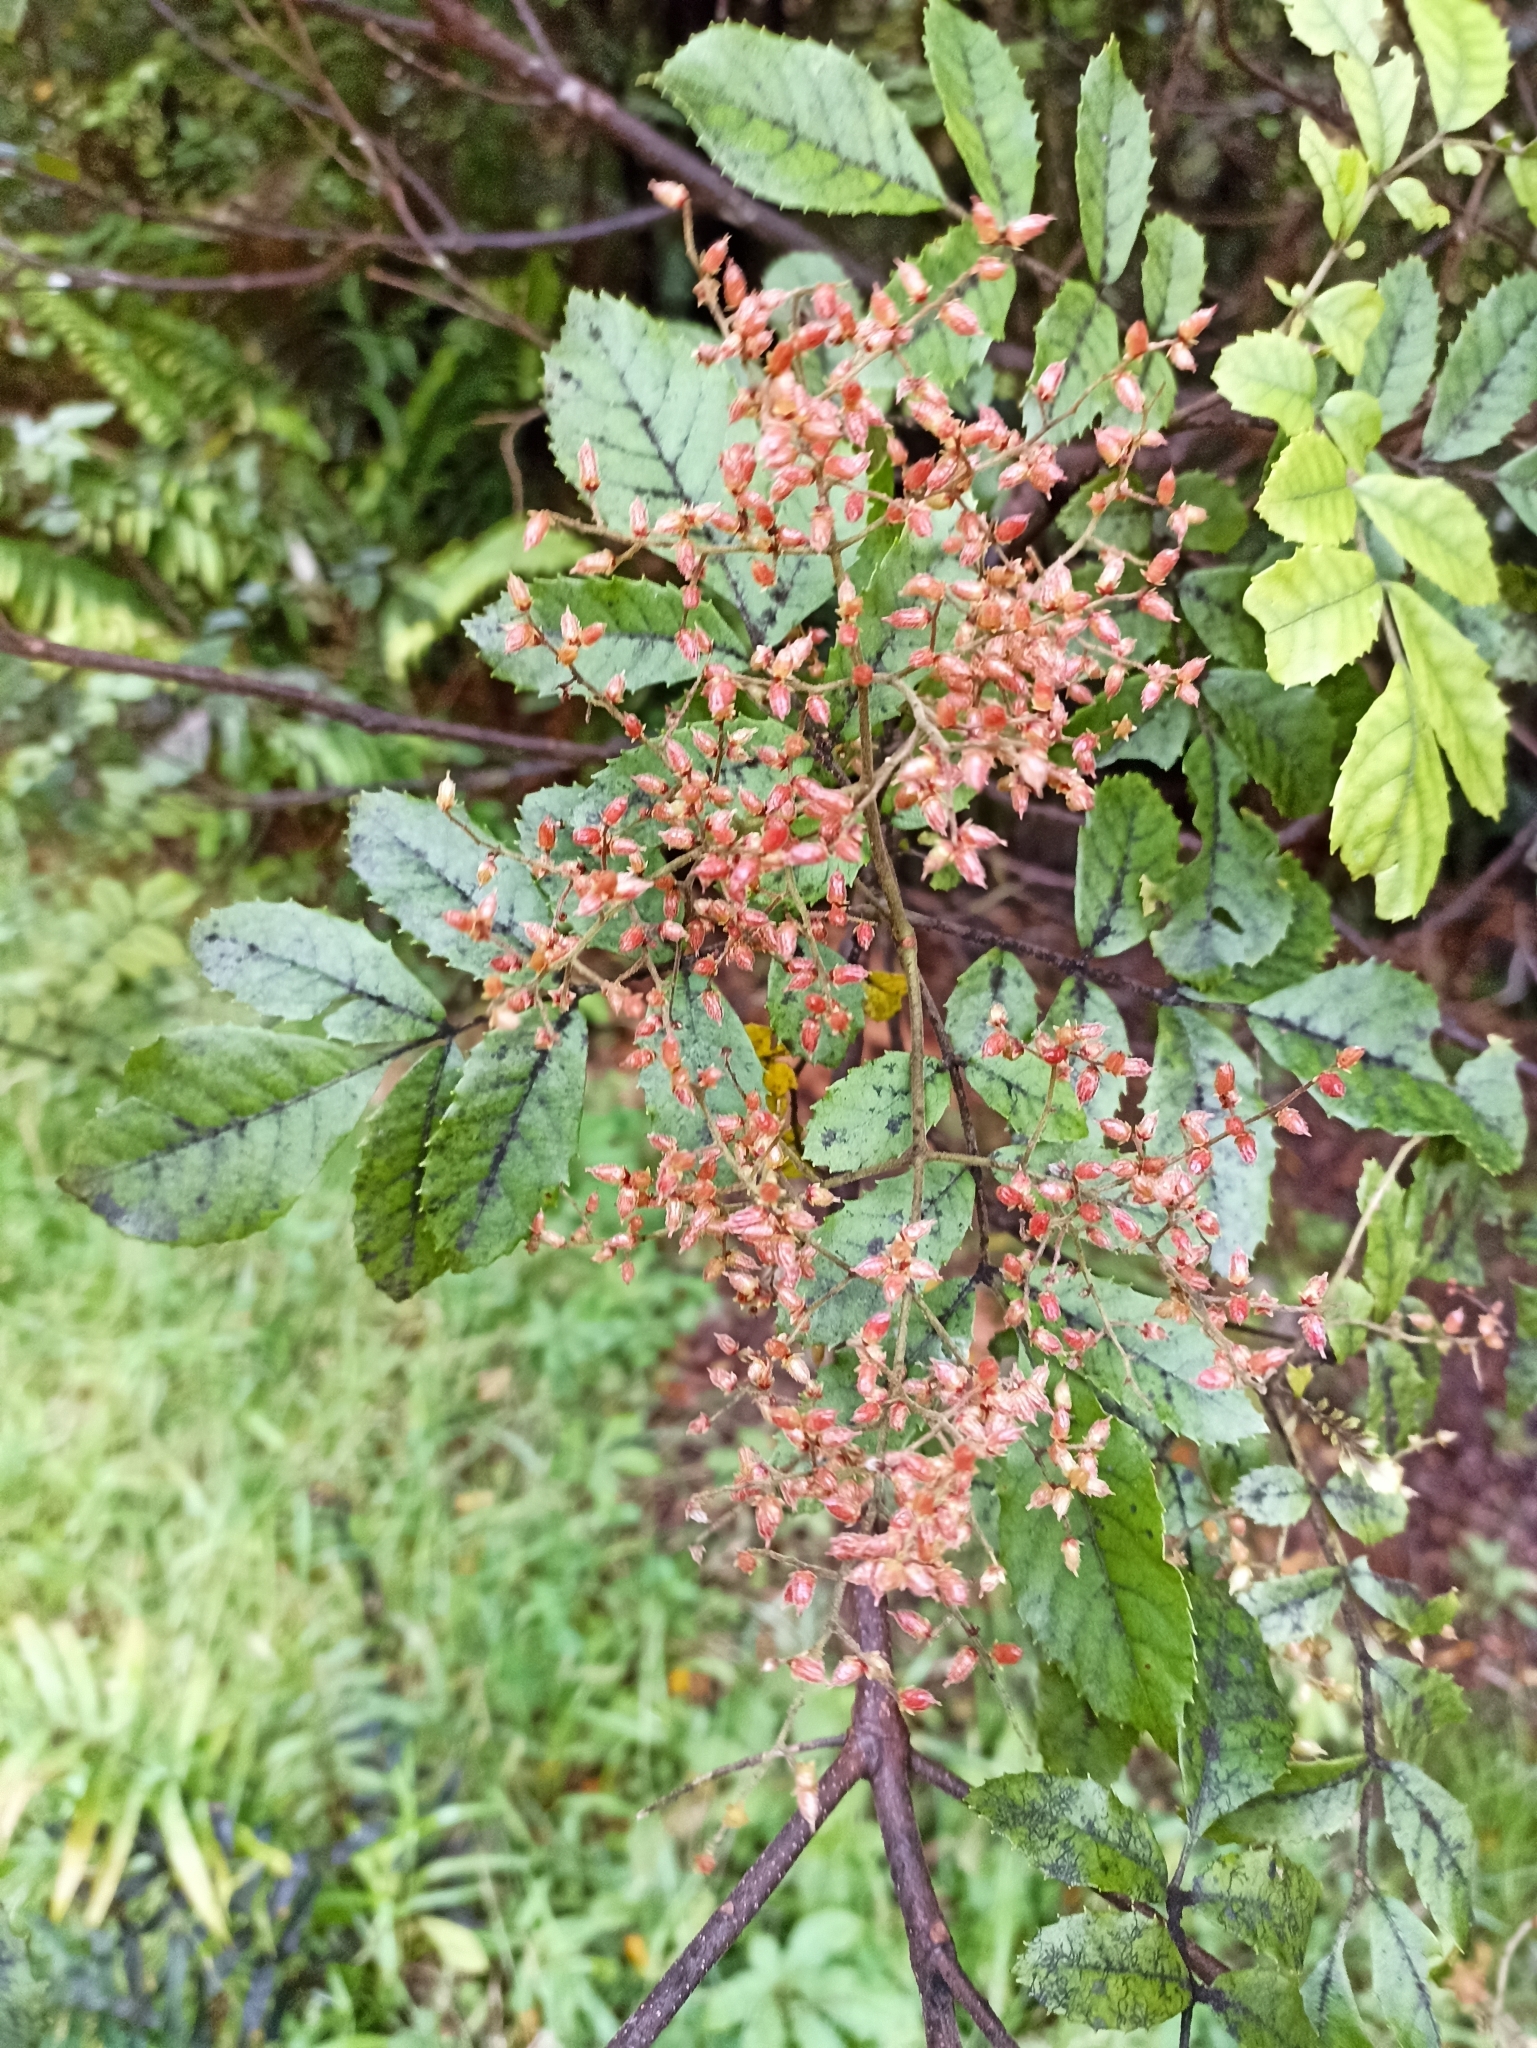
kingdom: Plantae
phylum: Tracheophyta
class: Magnoliopsida
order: Oxalidales
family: Cunoniaceae
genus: Ackama
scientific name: Ackama rosifolia
